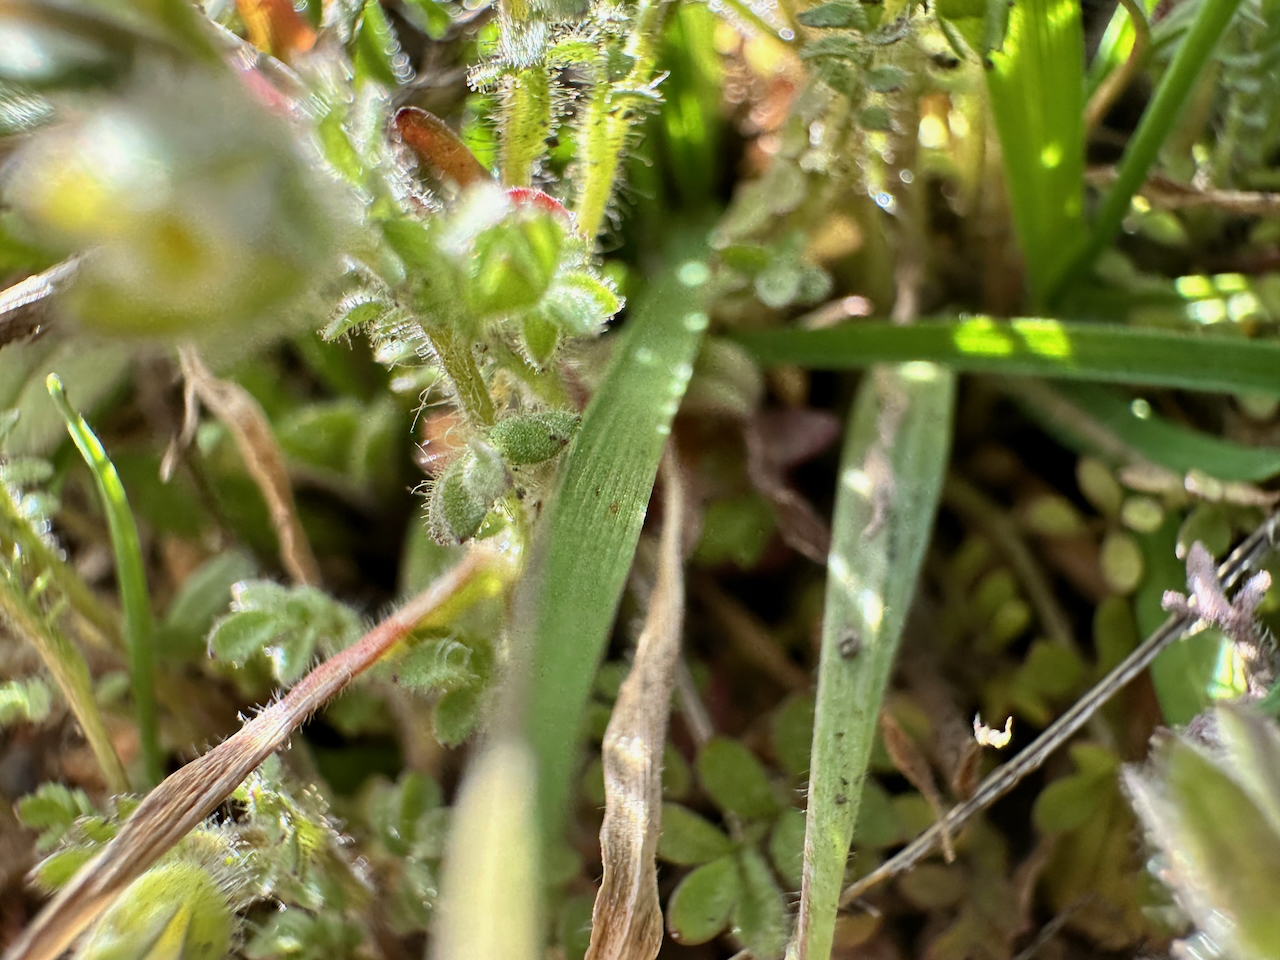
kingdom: Plantae
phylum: Tracheophyta
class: Magnoliopsida
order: Ericales
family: Polemoniaceae
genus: Polemonium
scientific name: Polemonium micranthum
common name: Annual jacob's-ladder
